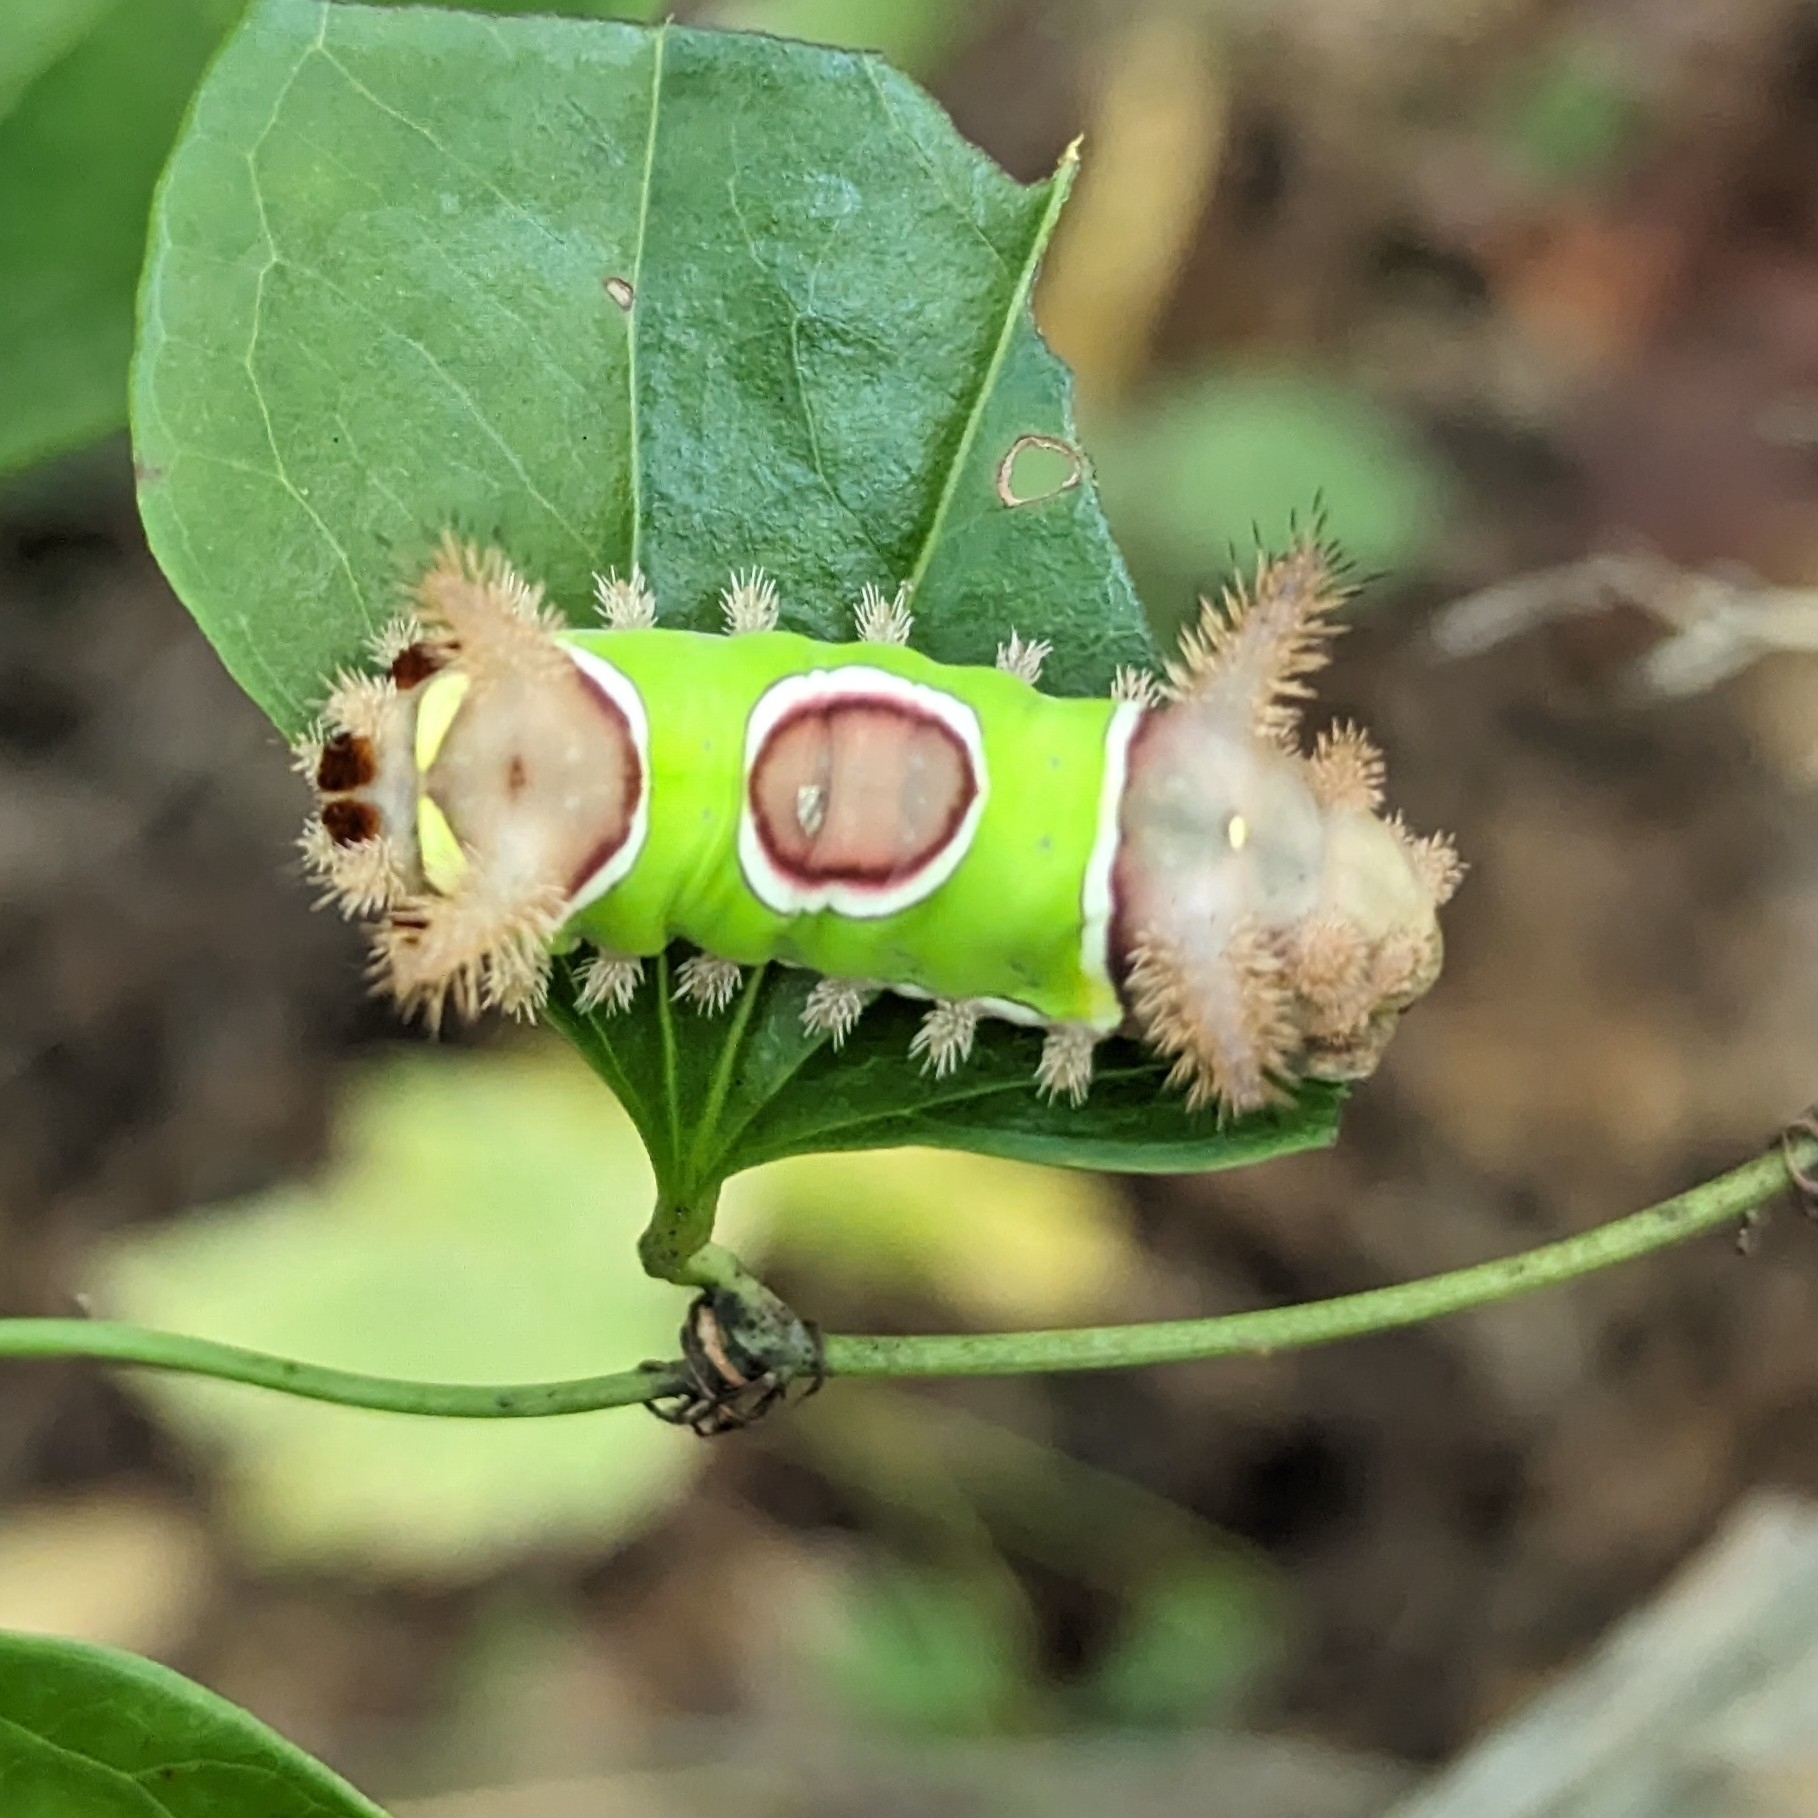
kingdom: Animalia
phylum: Arthropoda
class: Insecta
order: Lepidoptera
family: Limacodidae
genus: Acharia
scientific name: Acharia stimulea
